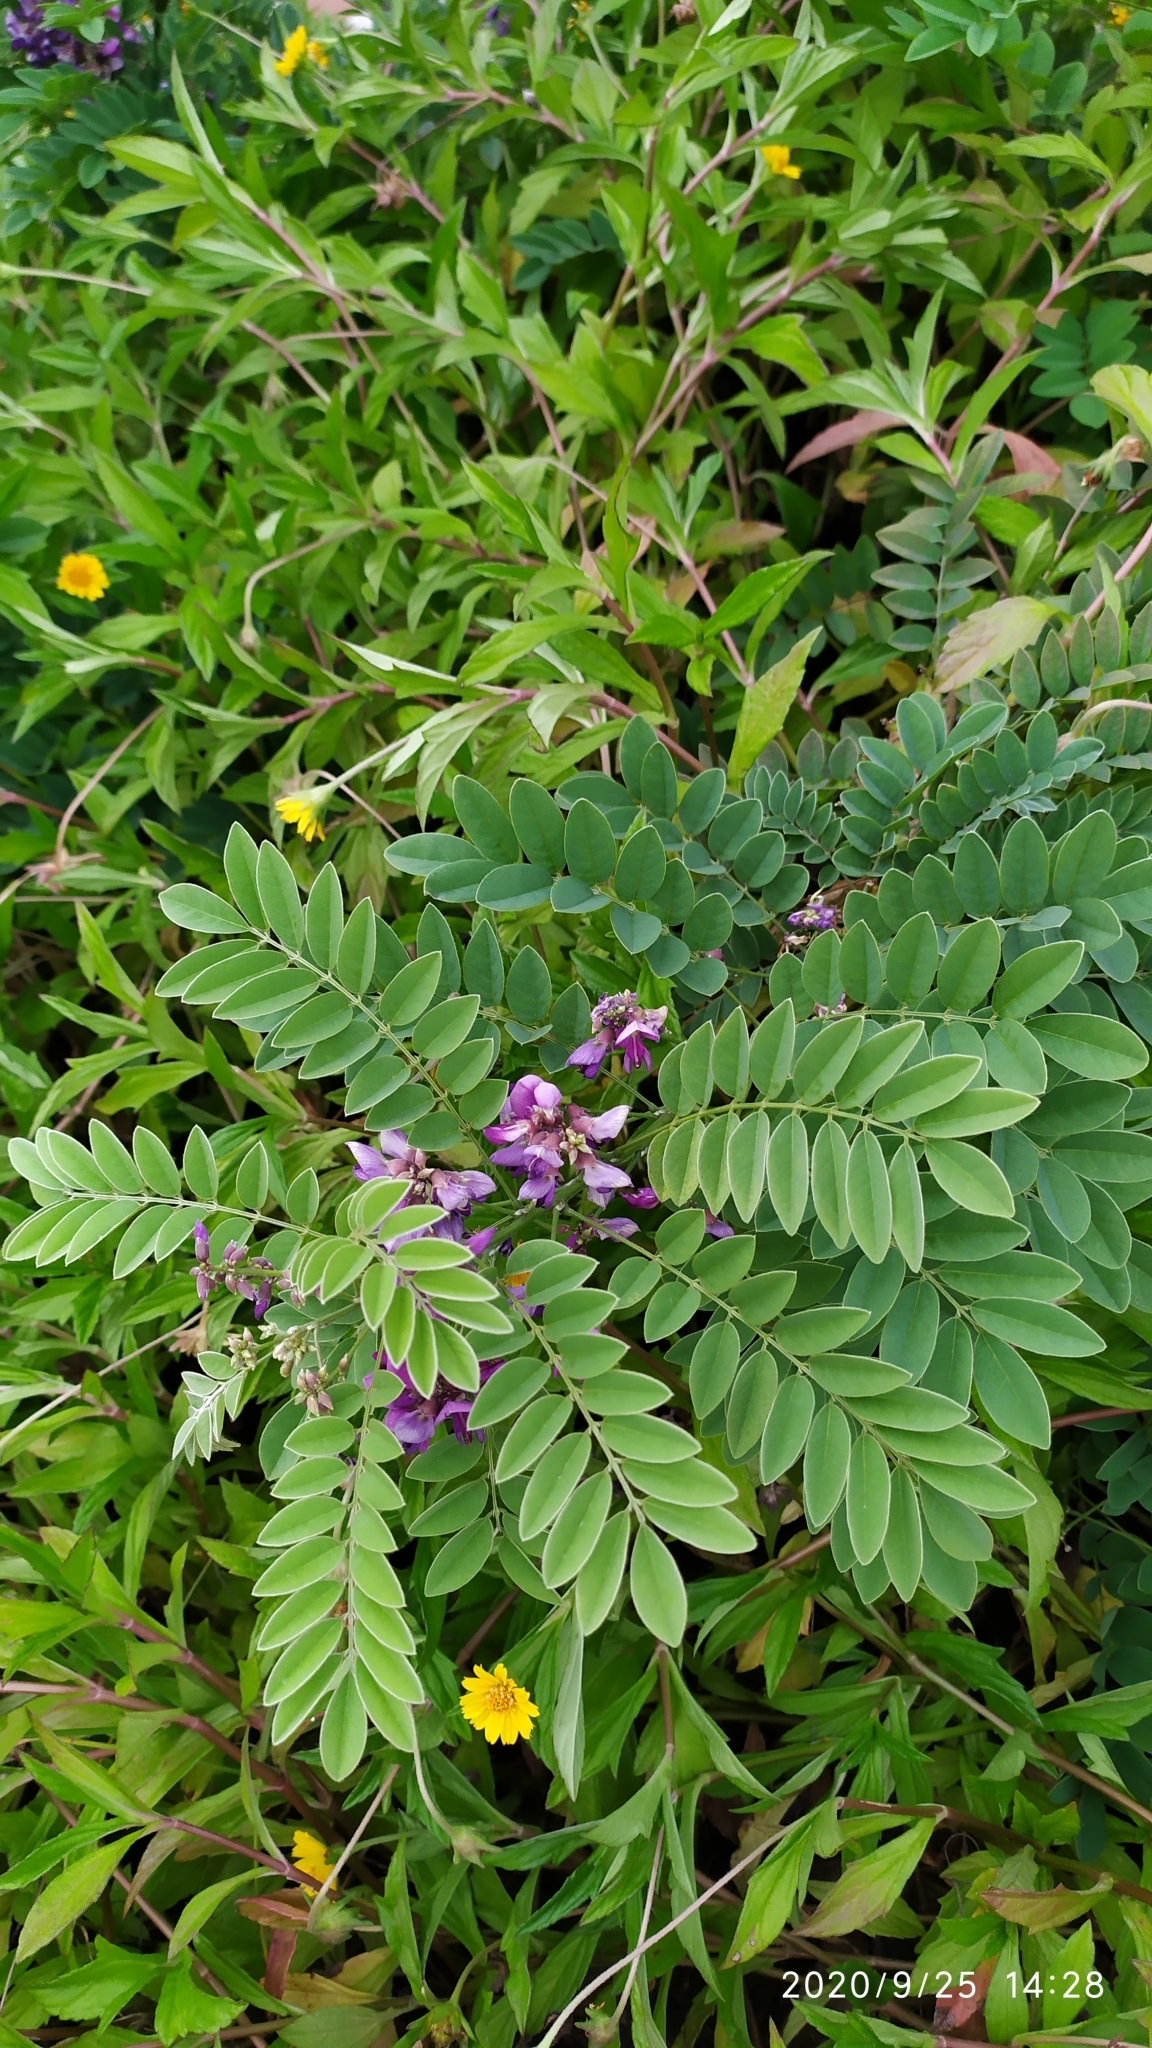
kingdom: Plantae
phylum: Tracheophyta
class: Magnoliopsida
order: Fabales
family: Fabaceae
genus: Millettia
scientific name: Millettia pulchra
